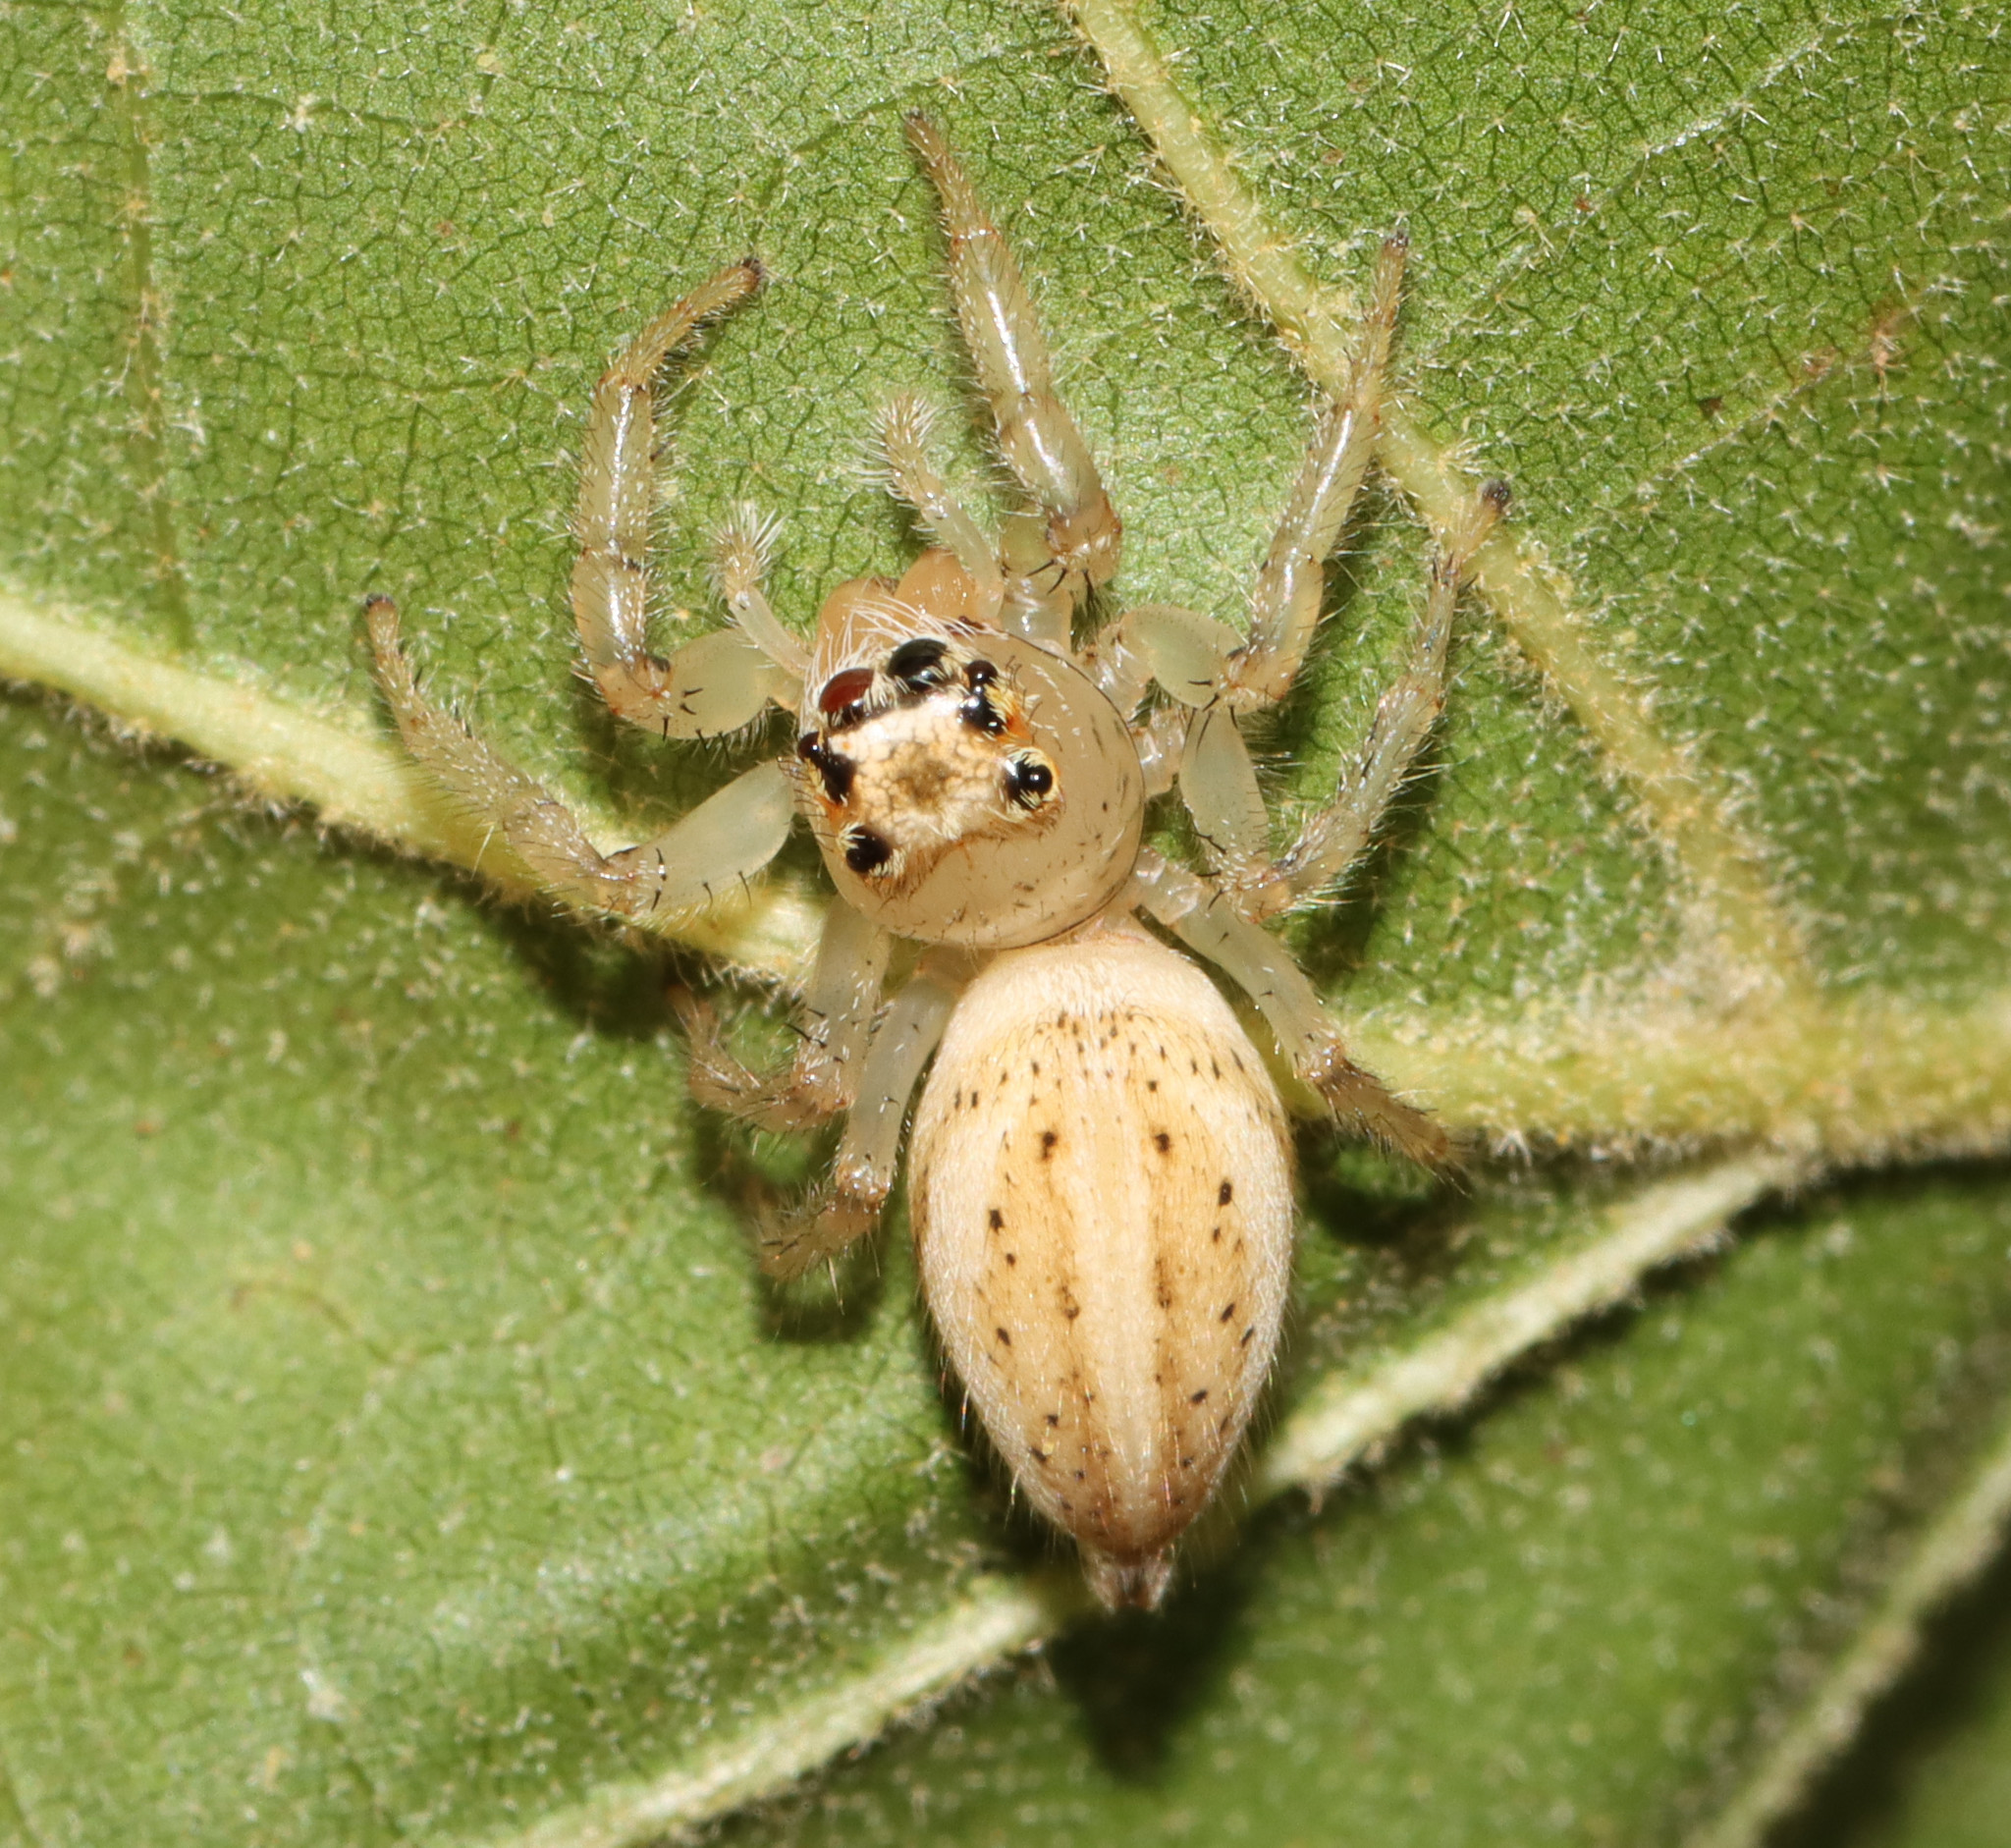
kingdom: Animalia
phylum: Arthropoda
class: Arachnida
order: Araneae
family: Salticidae
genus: Colonus
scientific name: Colonus sylvanus
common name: Jumping spiders
